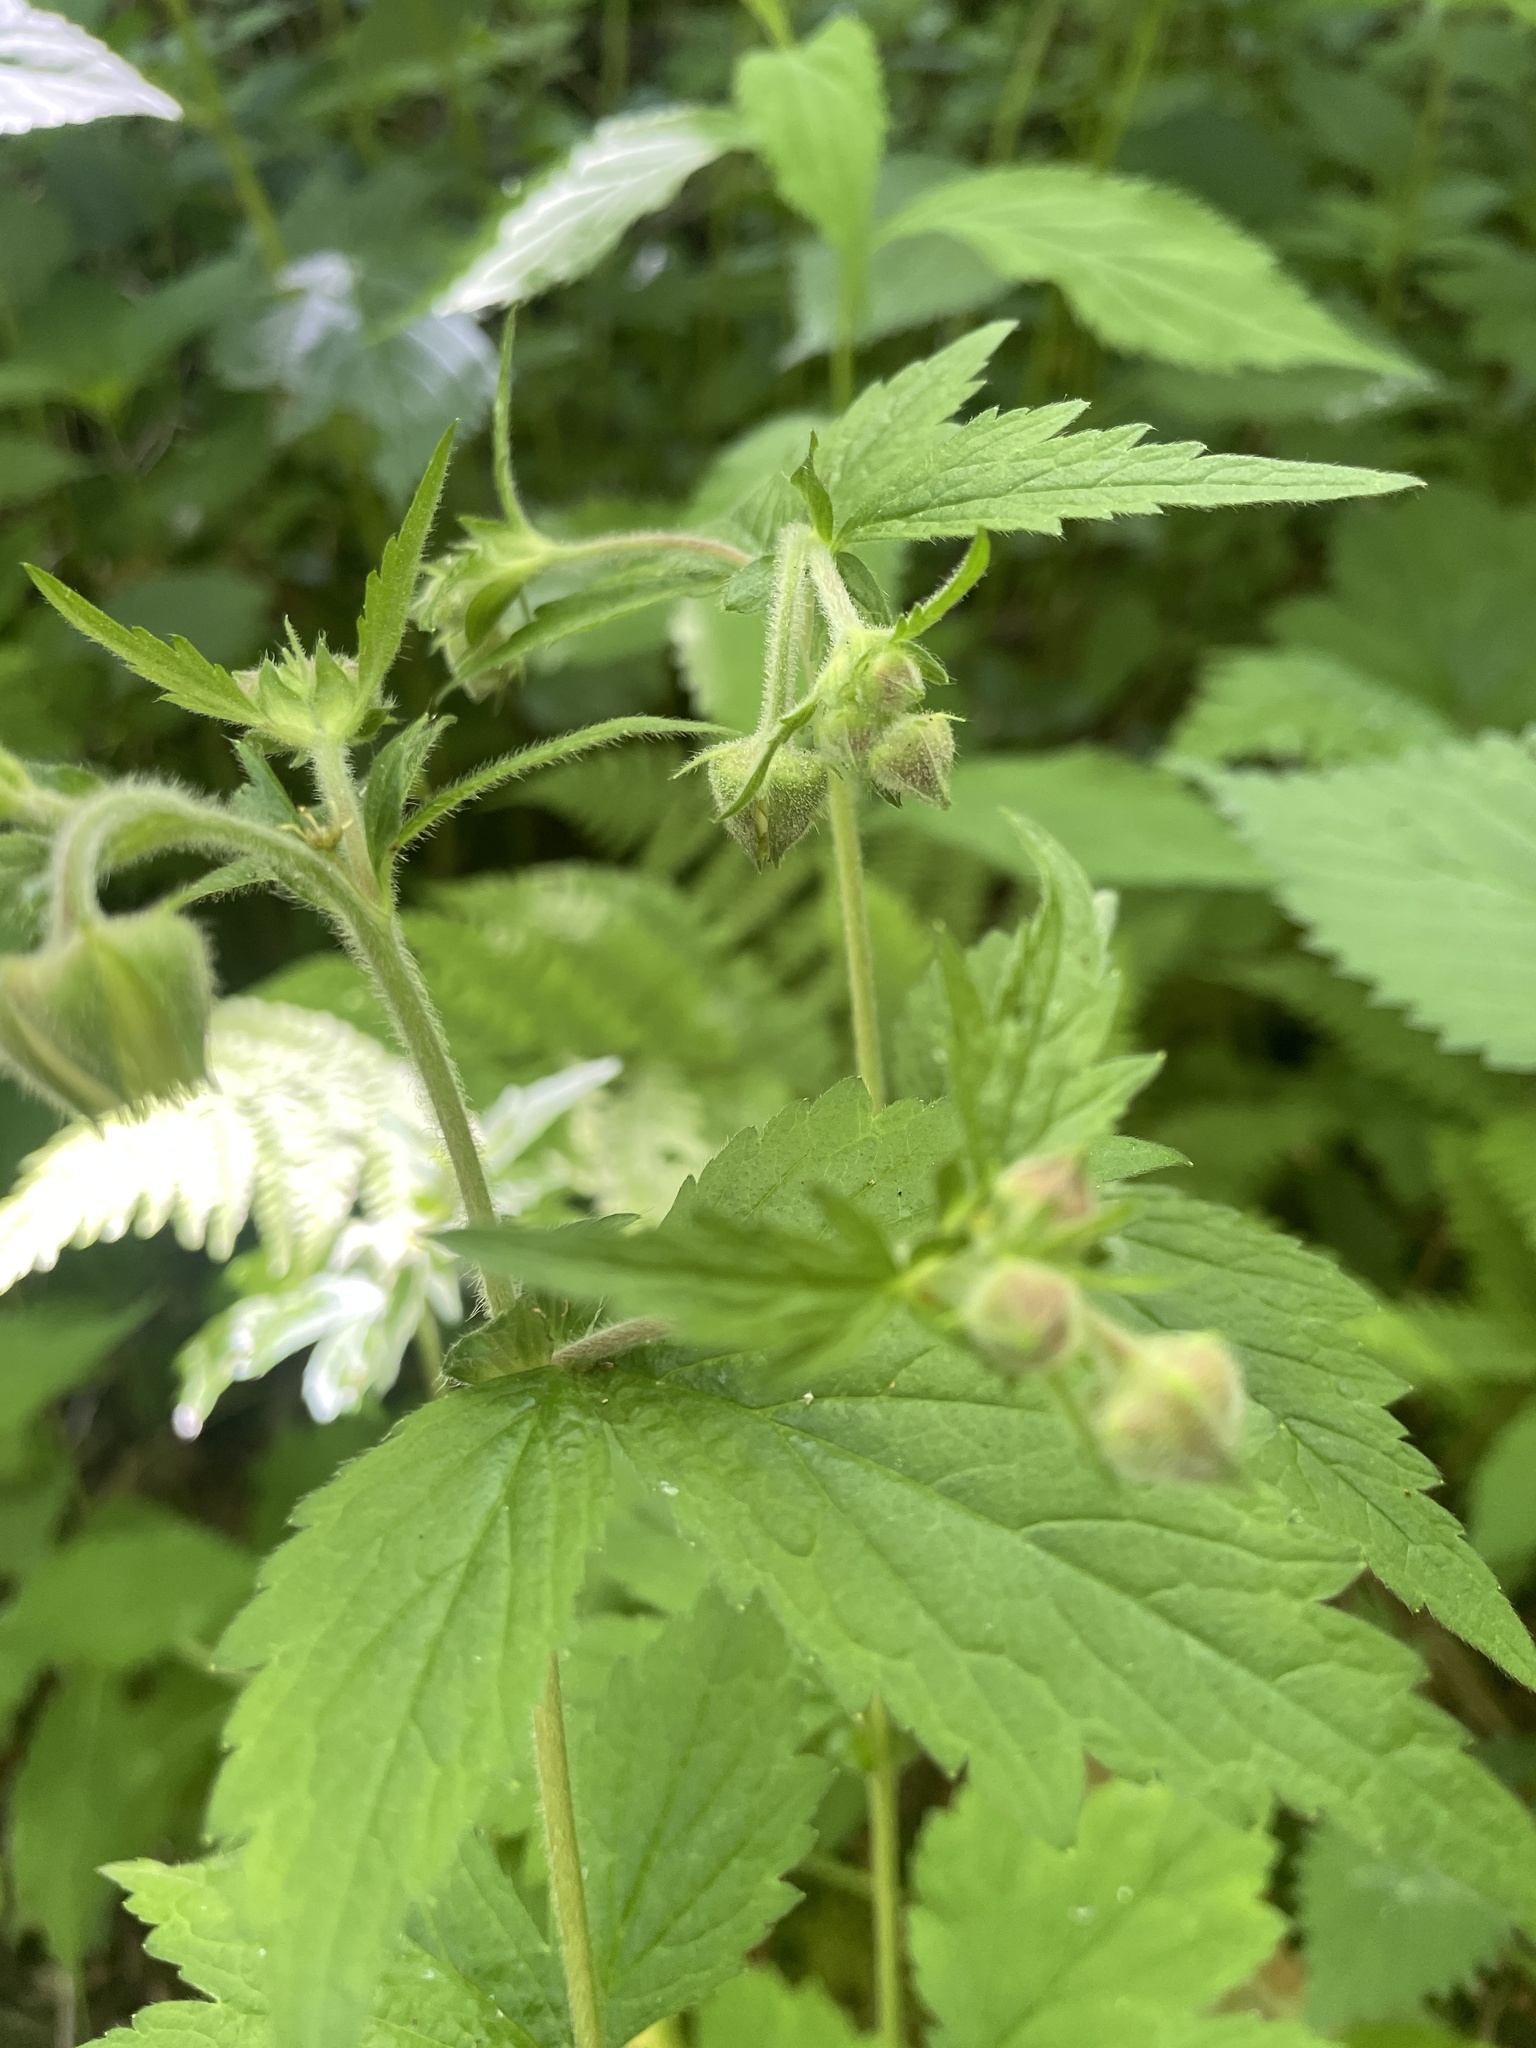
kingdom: Plantae
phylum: Tracheophyta
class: Magnoliopsida
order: Rosales
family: Rosaceae
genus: Geum
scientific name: Geum geniculatum
